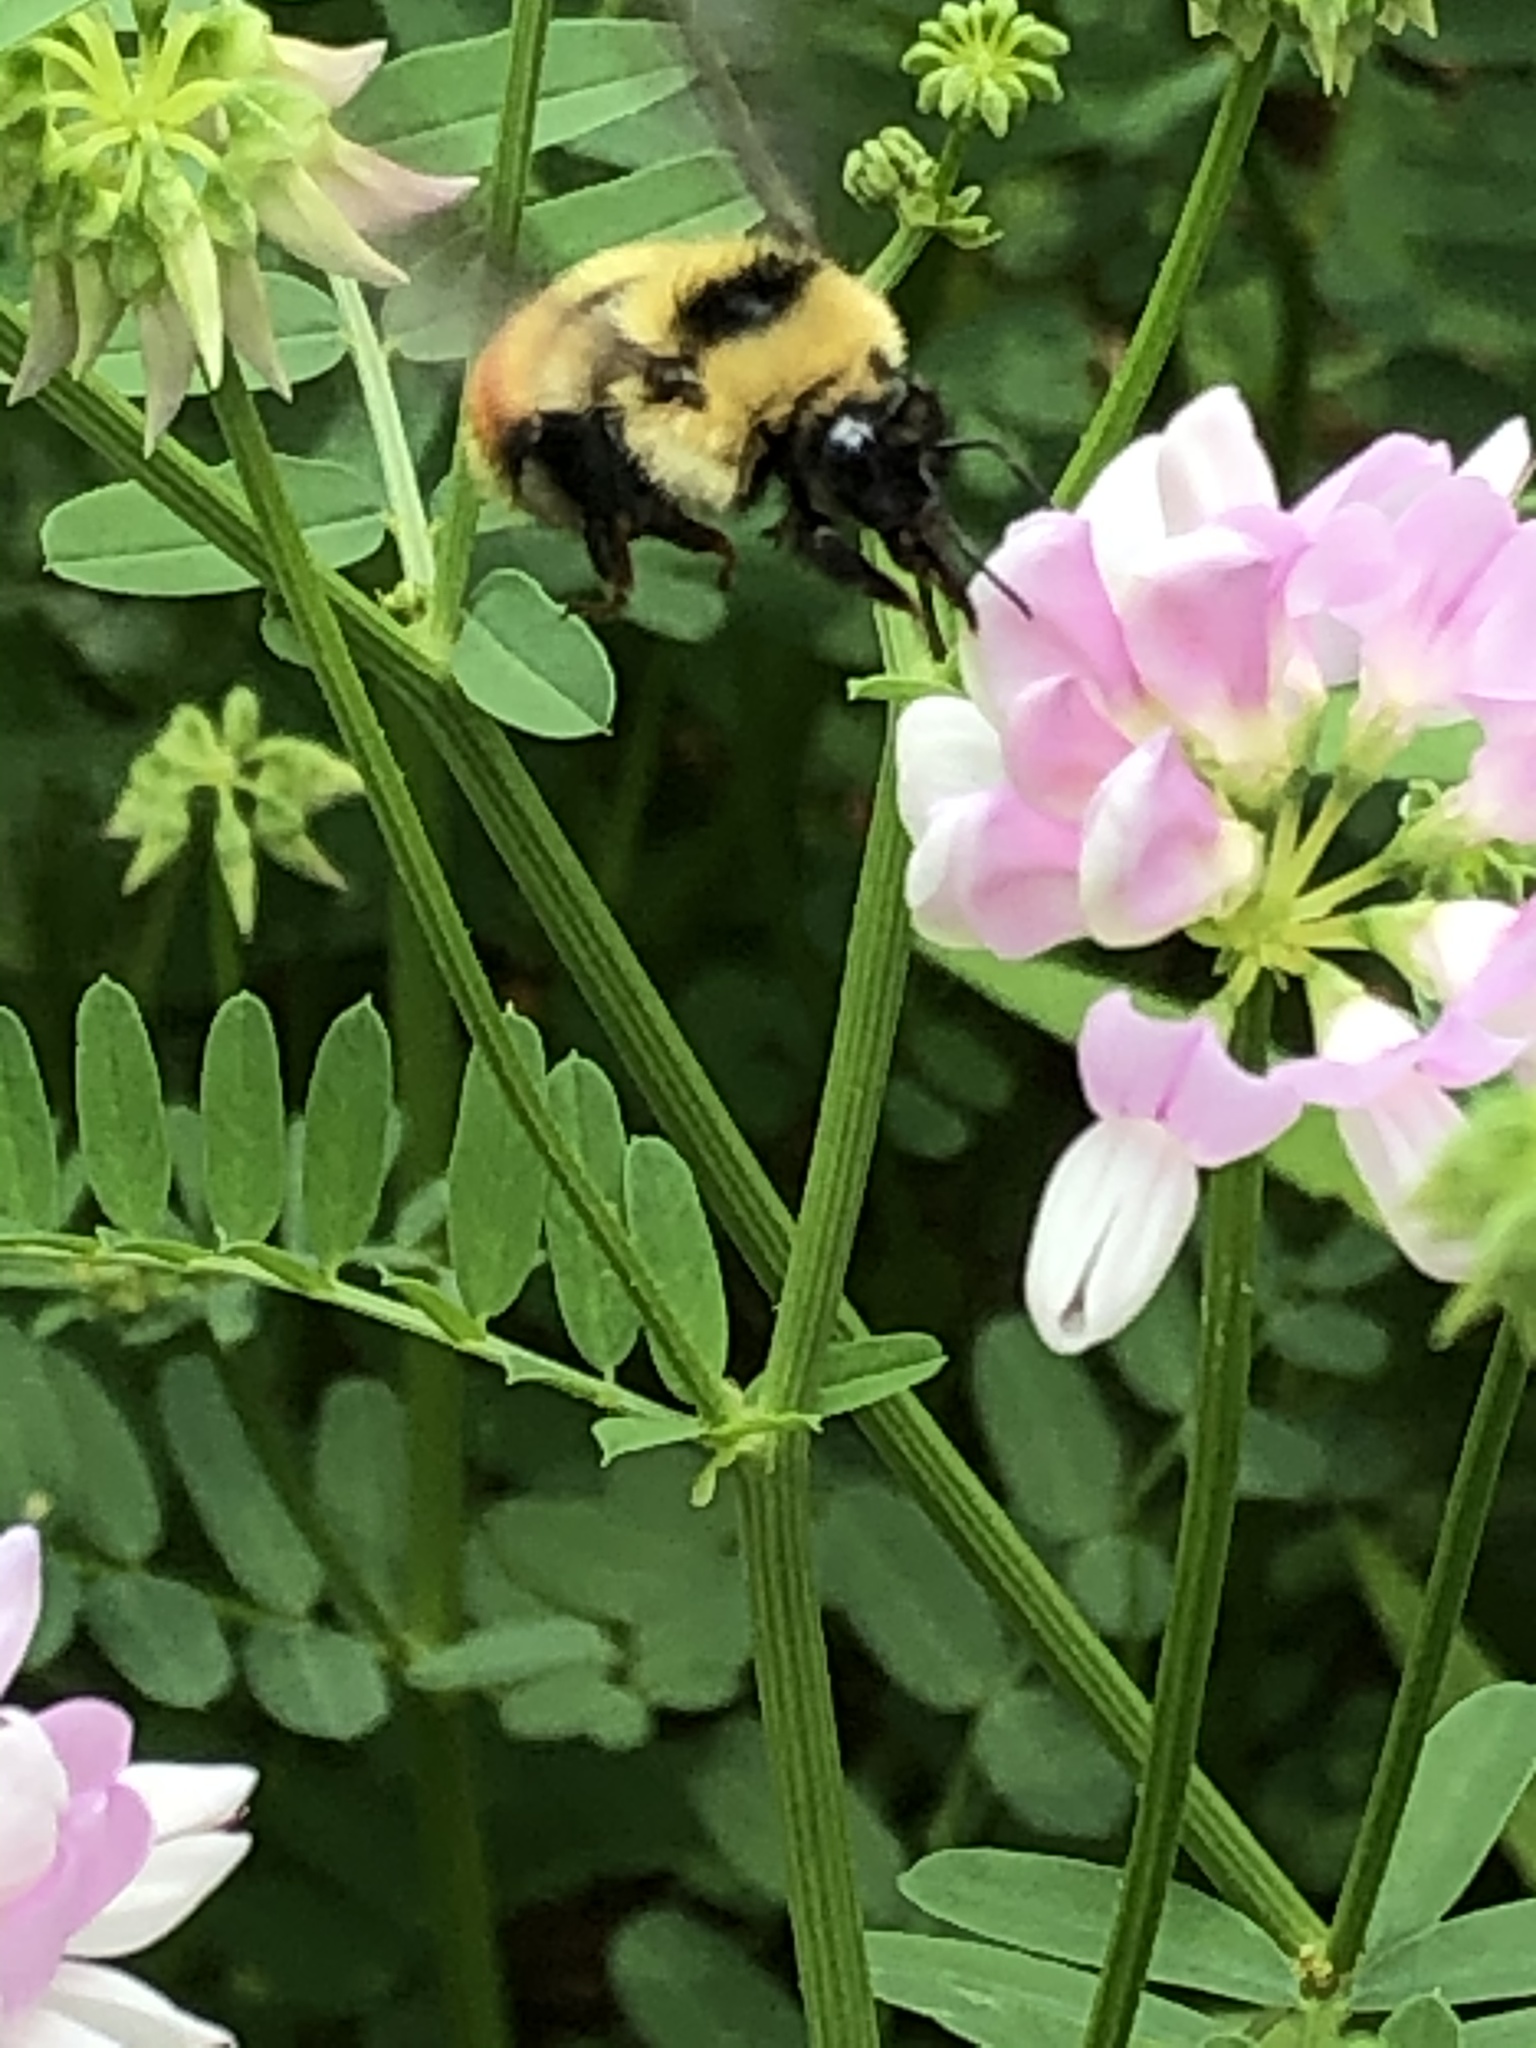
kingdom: Animalia
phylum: Arthropoda
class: Insecta
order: Hymenoptera
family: Apidae
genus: Bombus
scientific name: Bombus rufocinctus
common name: Red-belted bumble bee
